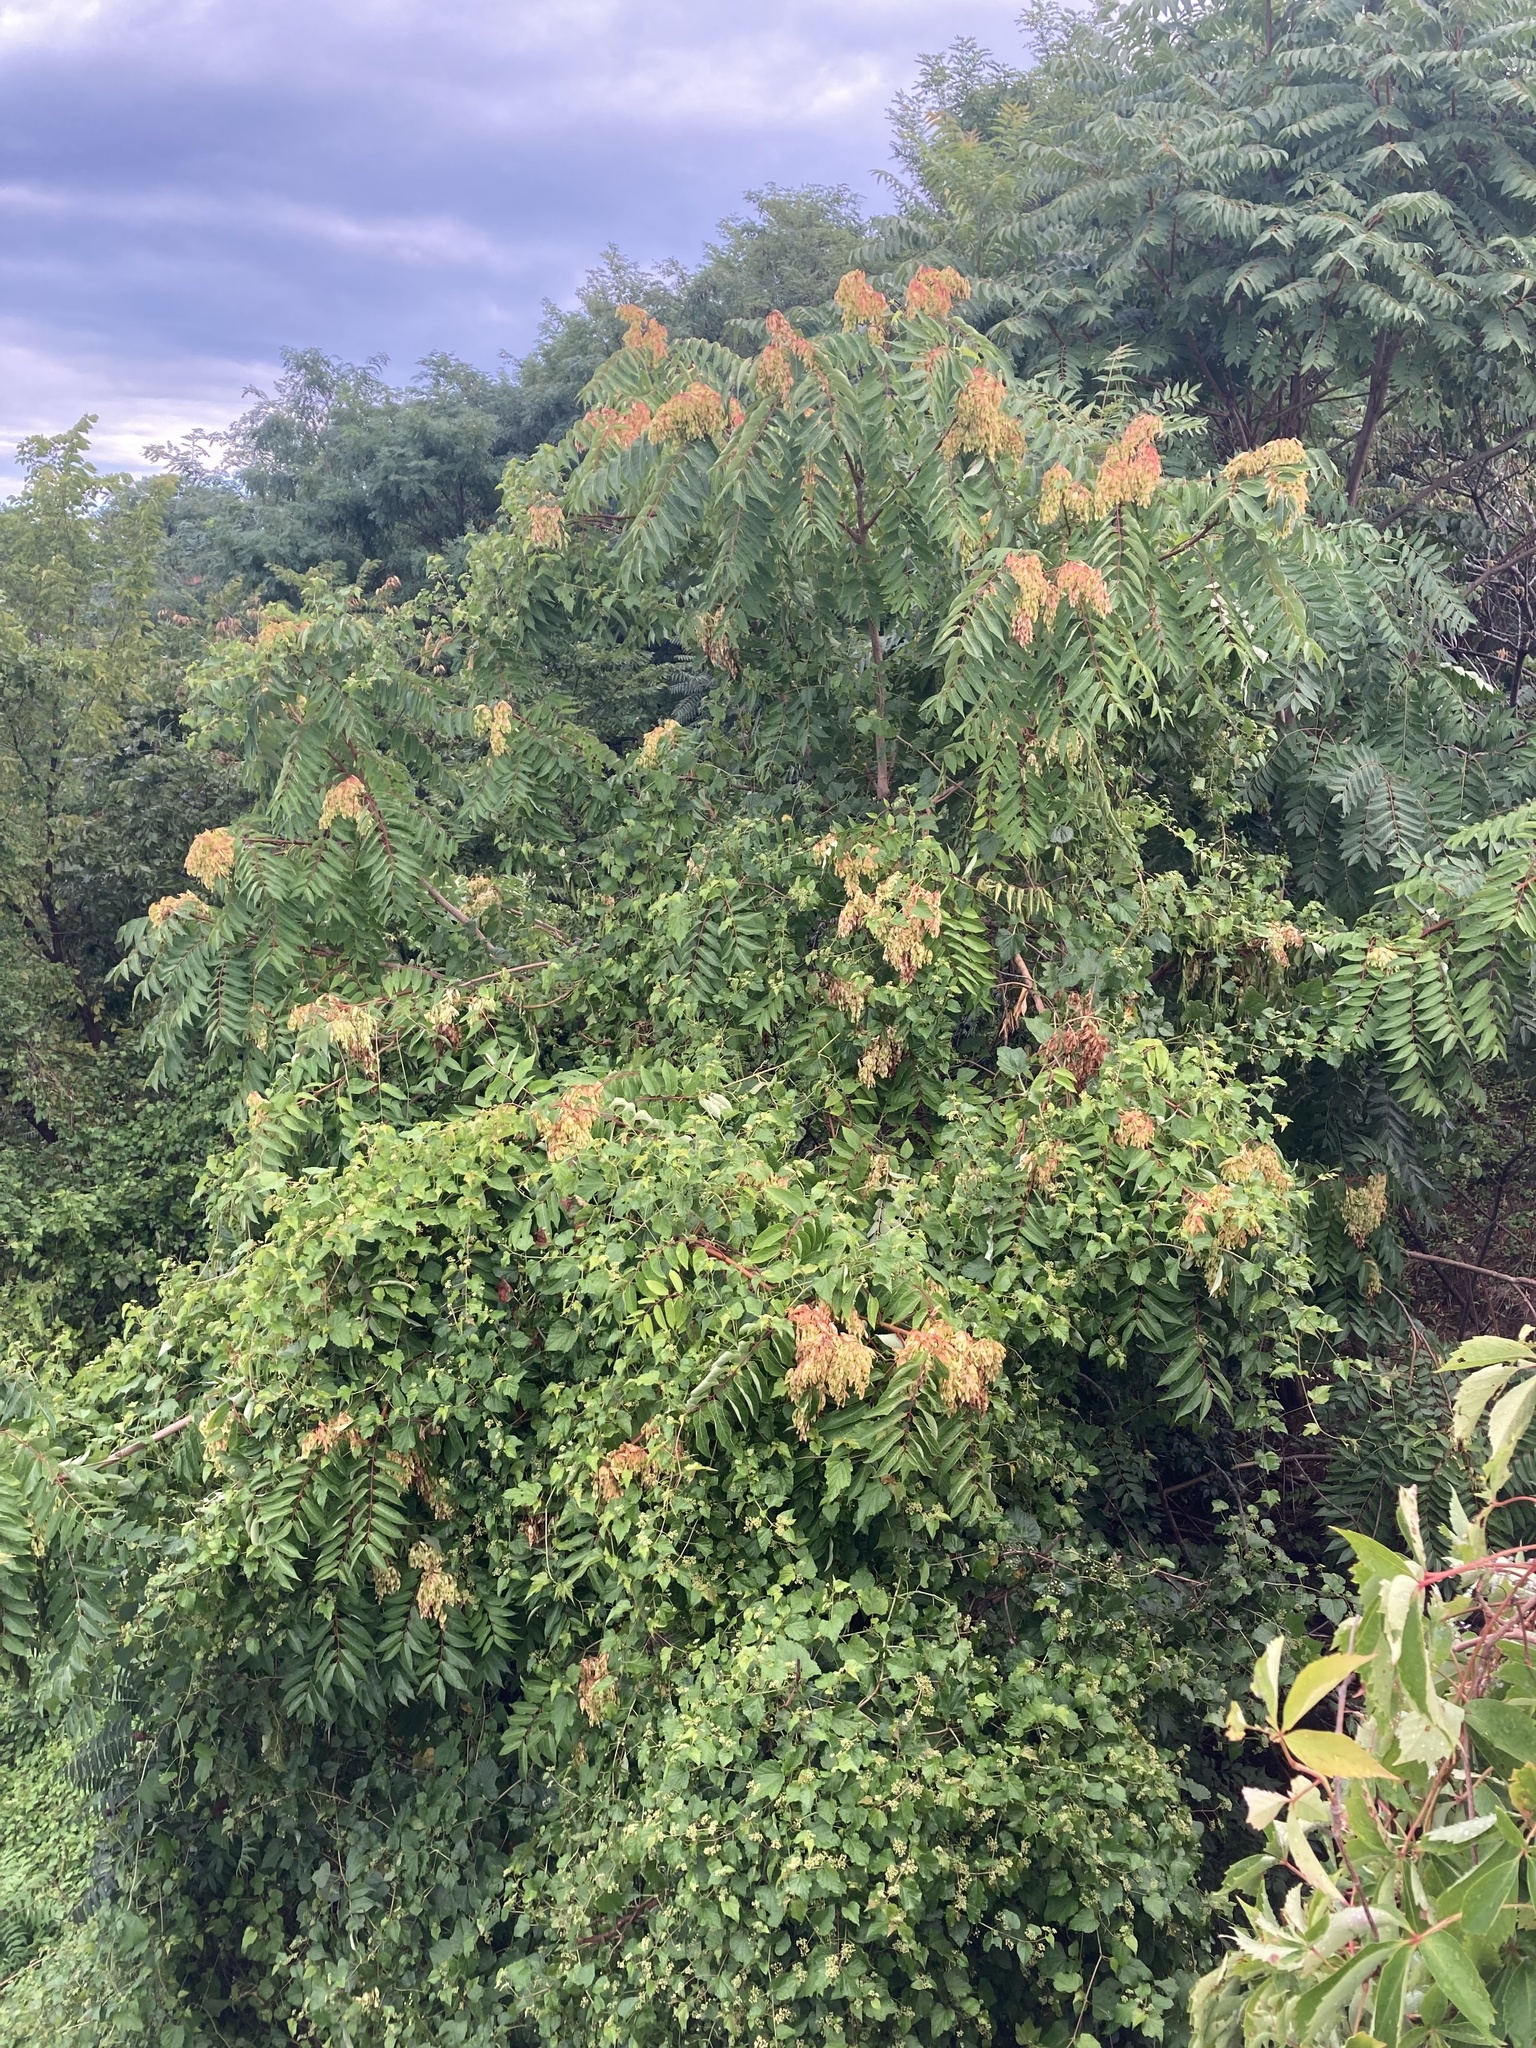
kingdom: Plantae
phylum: Tracheophyta
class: Magnoliopsida
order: Sapindales
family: Simaroubaceae
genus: Ailanthus
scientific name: Ailanthus altissima
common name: Tree-of-heaven
